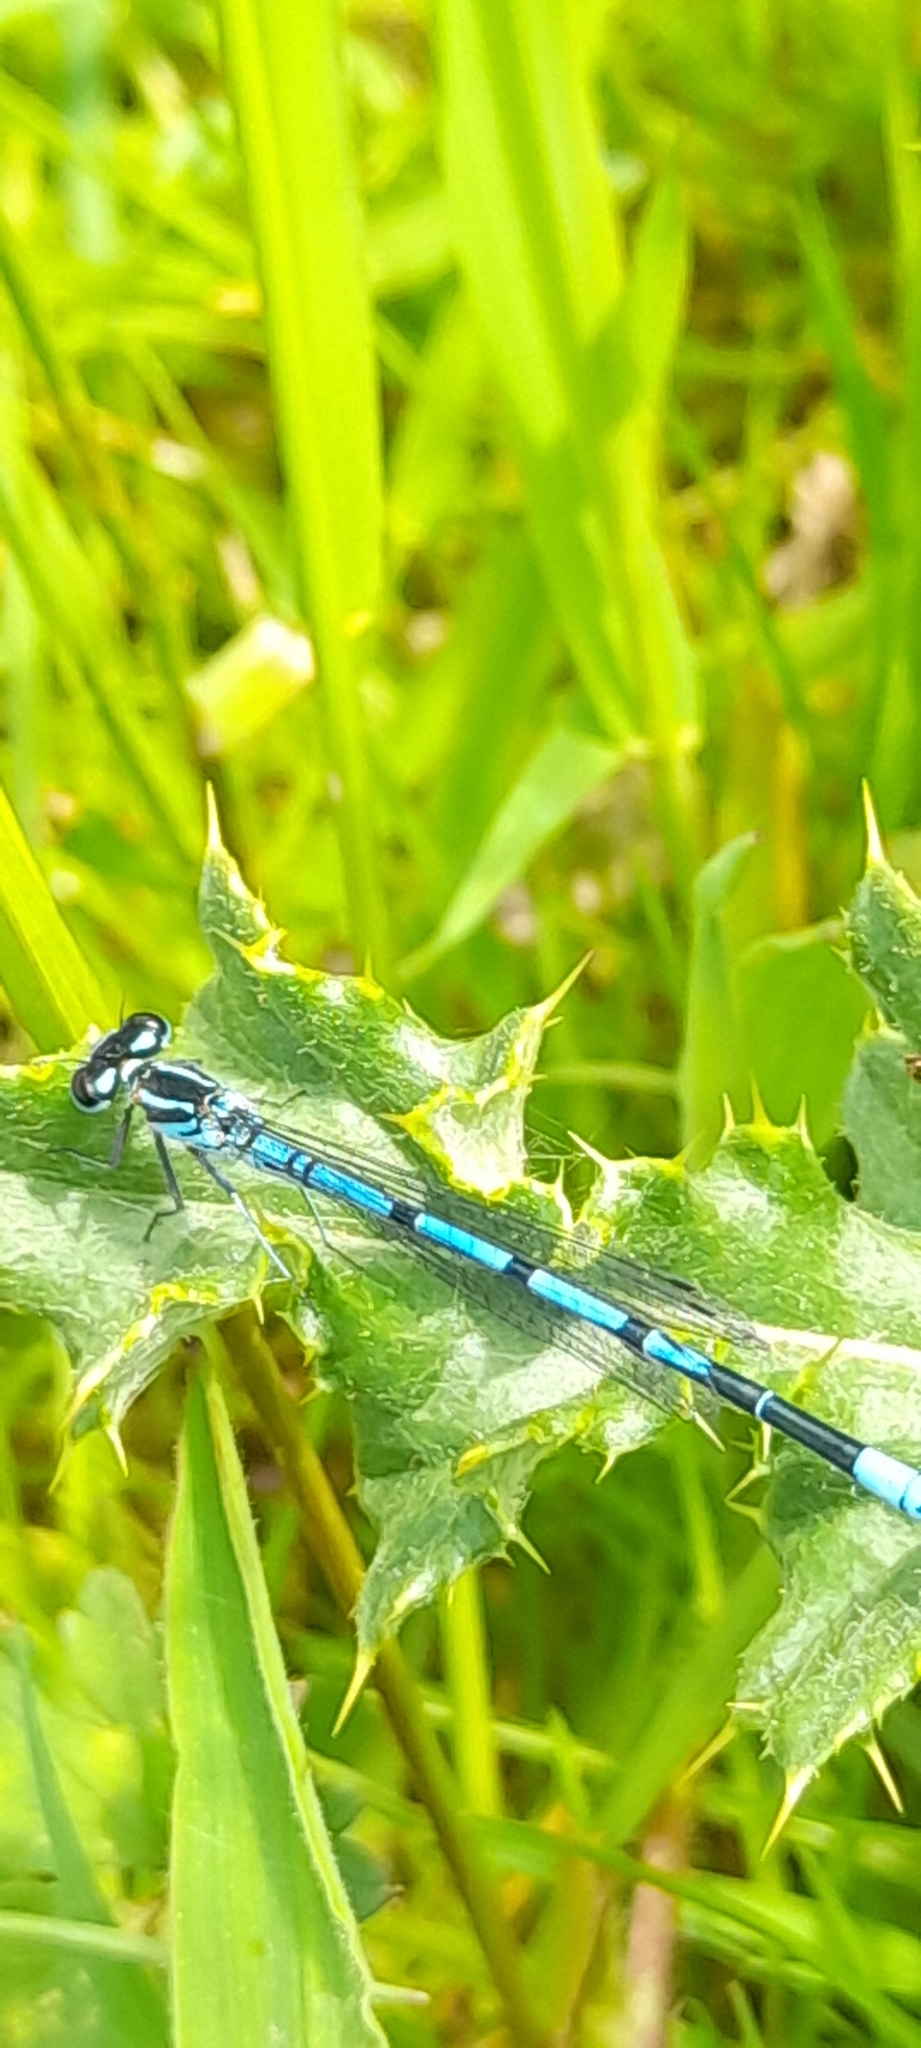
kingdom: Animalia
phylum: Arthropoda
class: Insecta
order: Odonata
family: Coenagrionidae
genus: Coenagrion
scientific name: Coenagrion puella
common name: Azure damselfly
